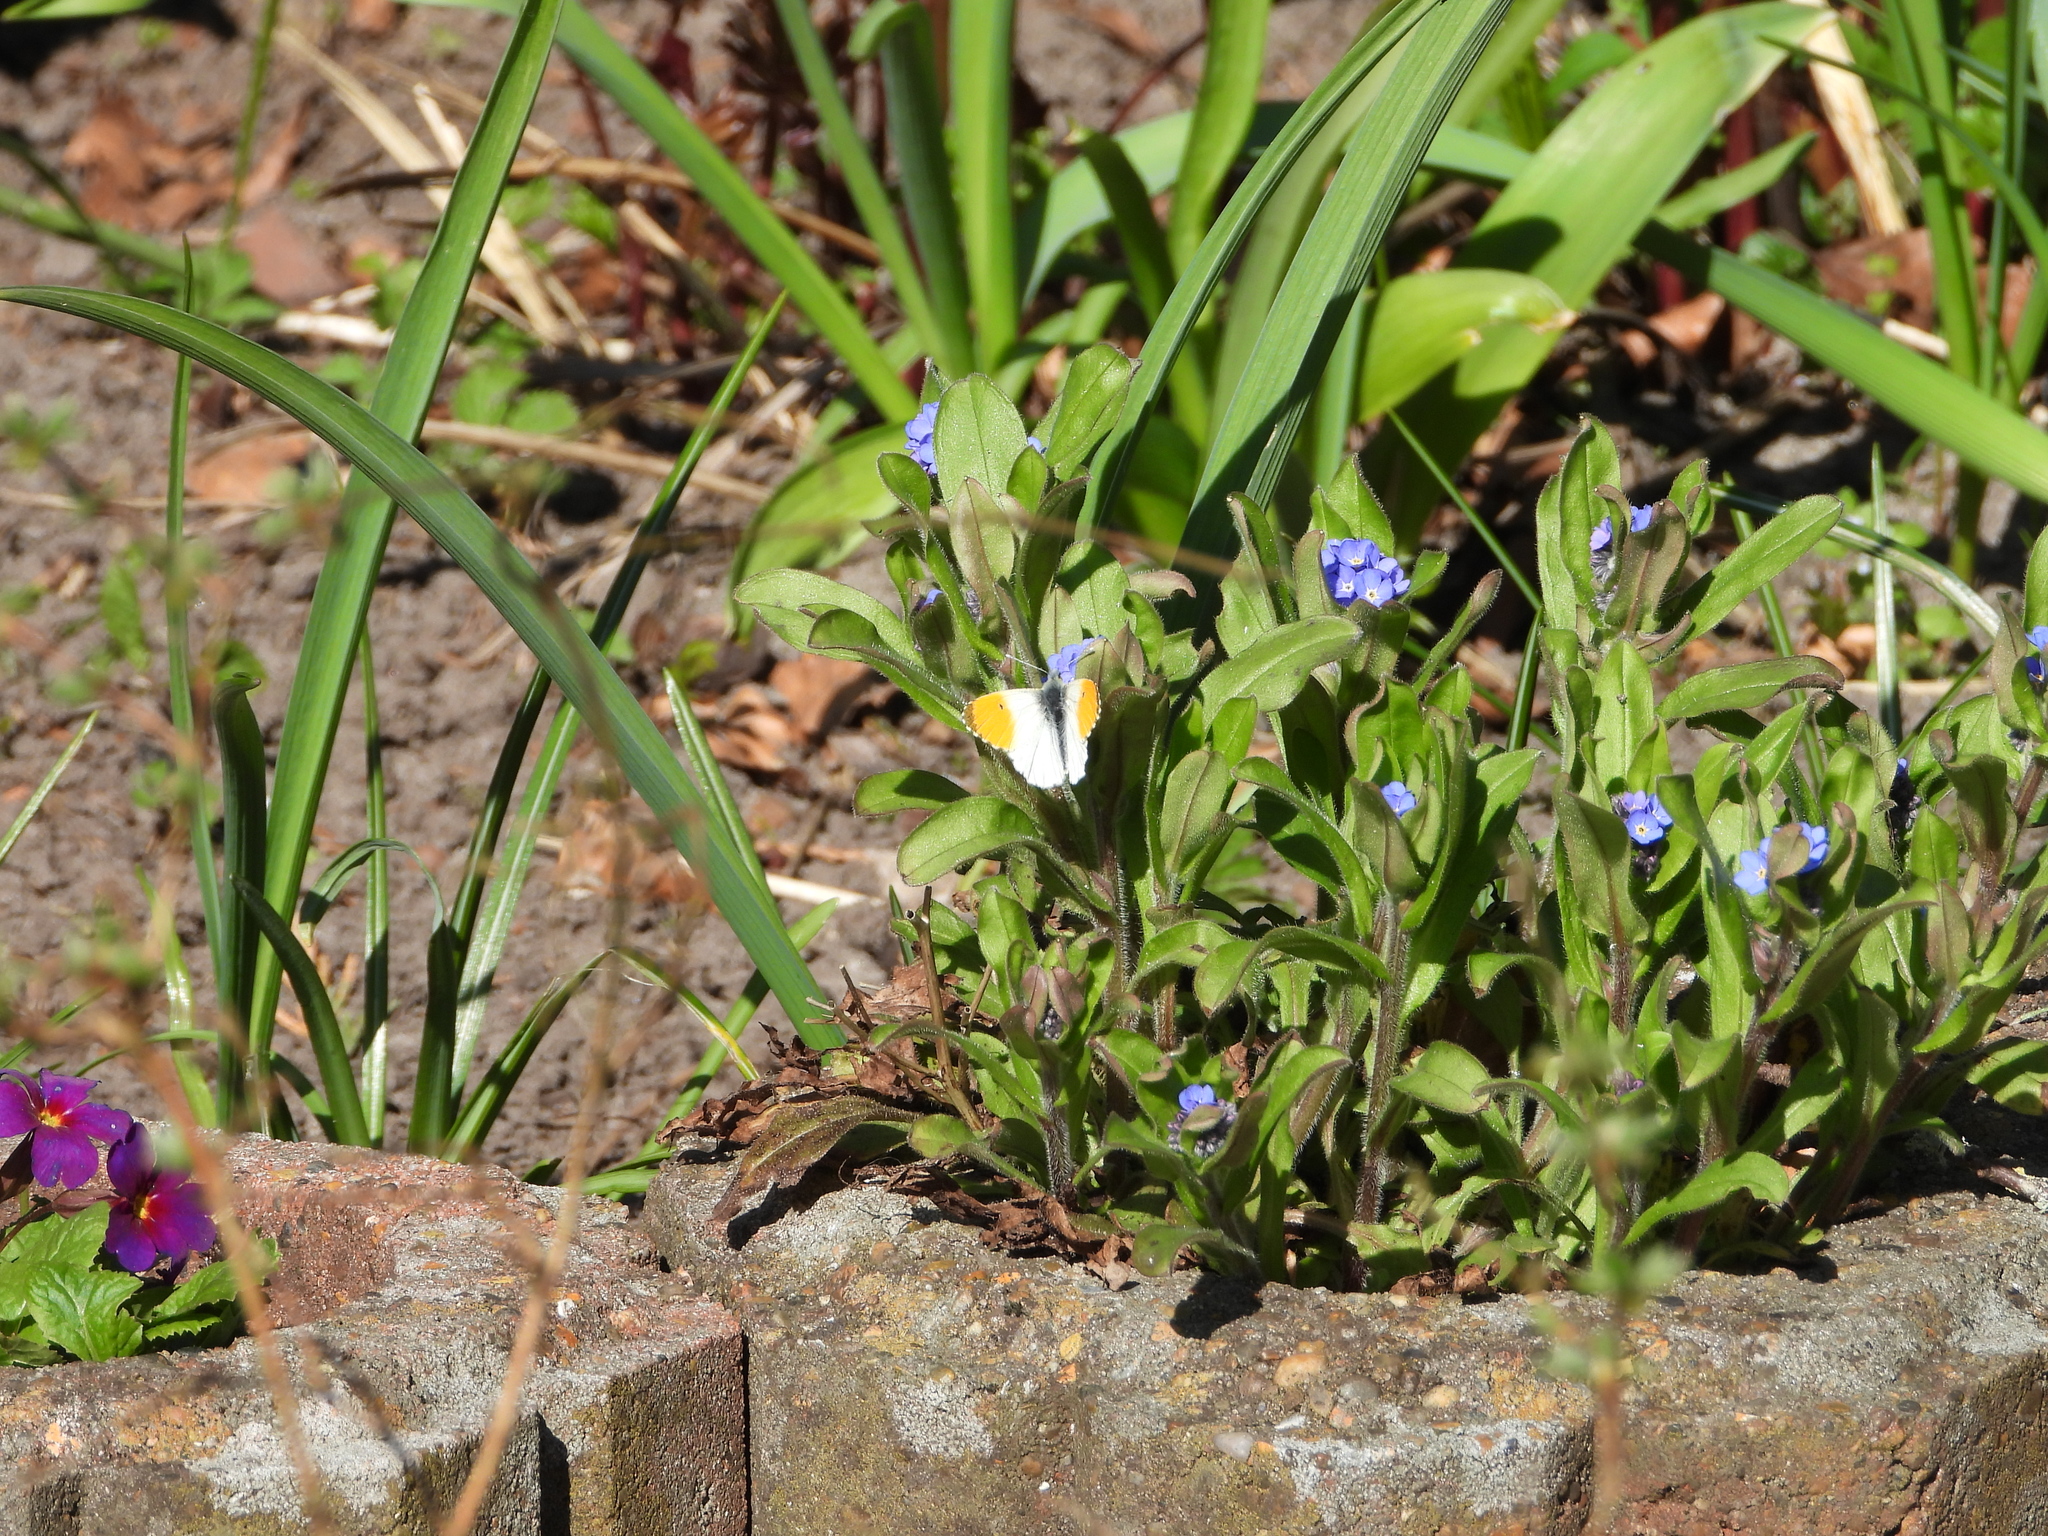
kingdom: Animalia
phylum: Arthropoda
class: Insecta
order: Lepidoptera
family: Pieridae
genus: Anthocharis
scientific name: Anthocharis cardamines
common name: Orange-tip
